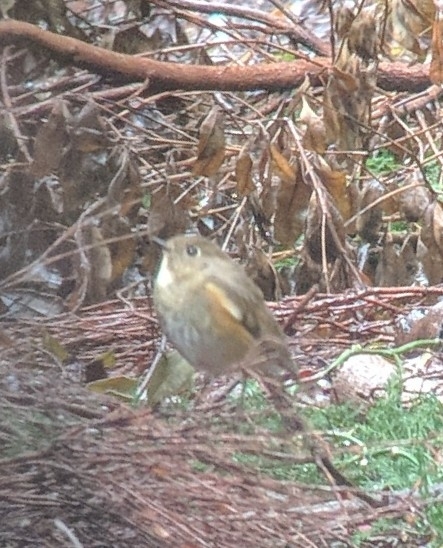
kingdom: Animalia
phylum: Chordata
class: Aves
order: Passeriformes
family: Muscicapidae
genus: Tarsiger
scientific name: Tarsiger cyanurus
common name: Red-flanked bluetail
